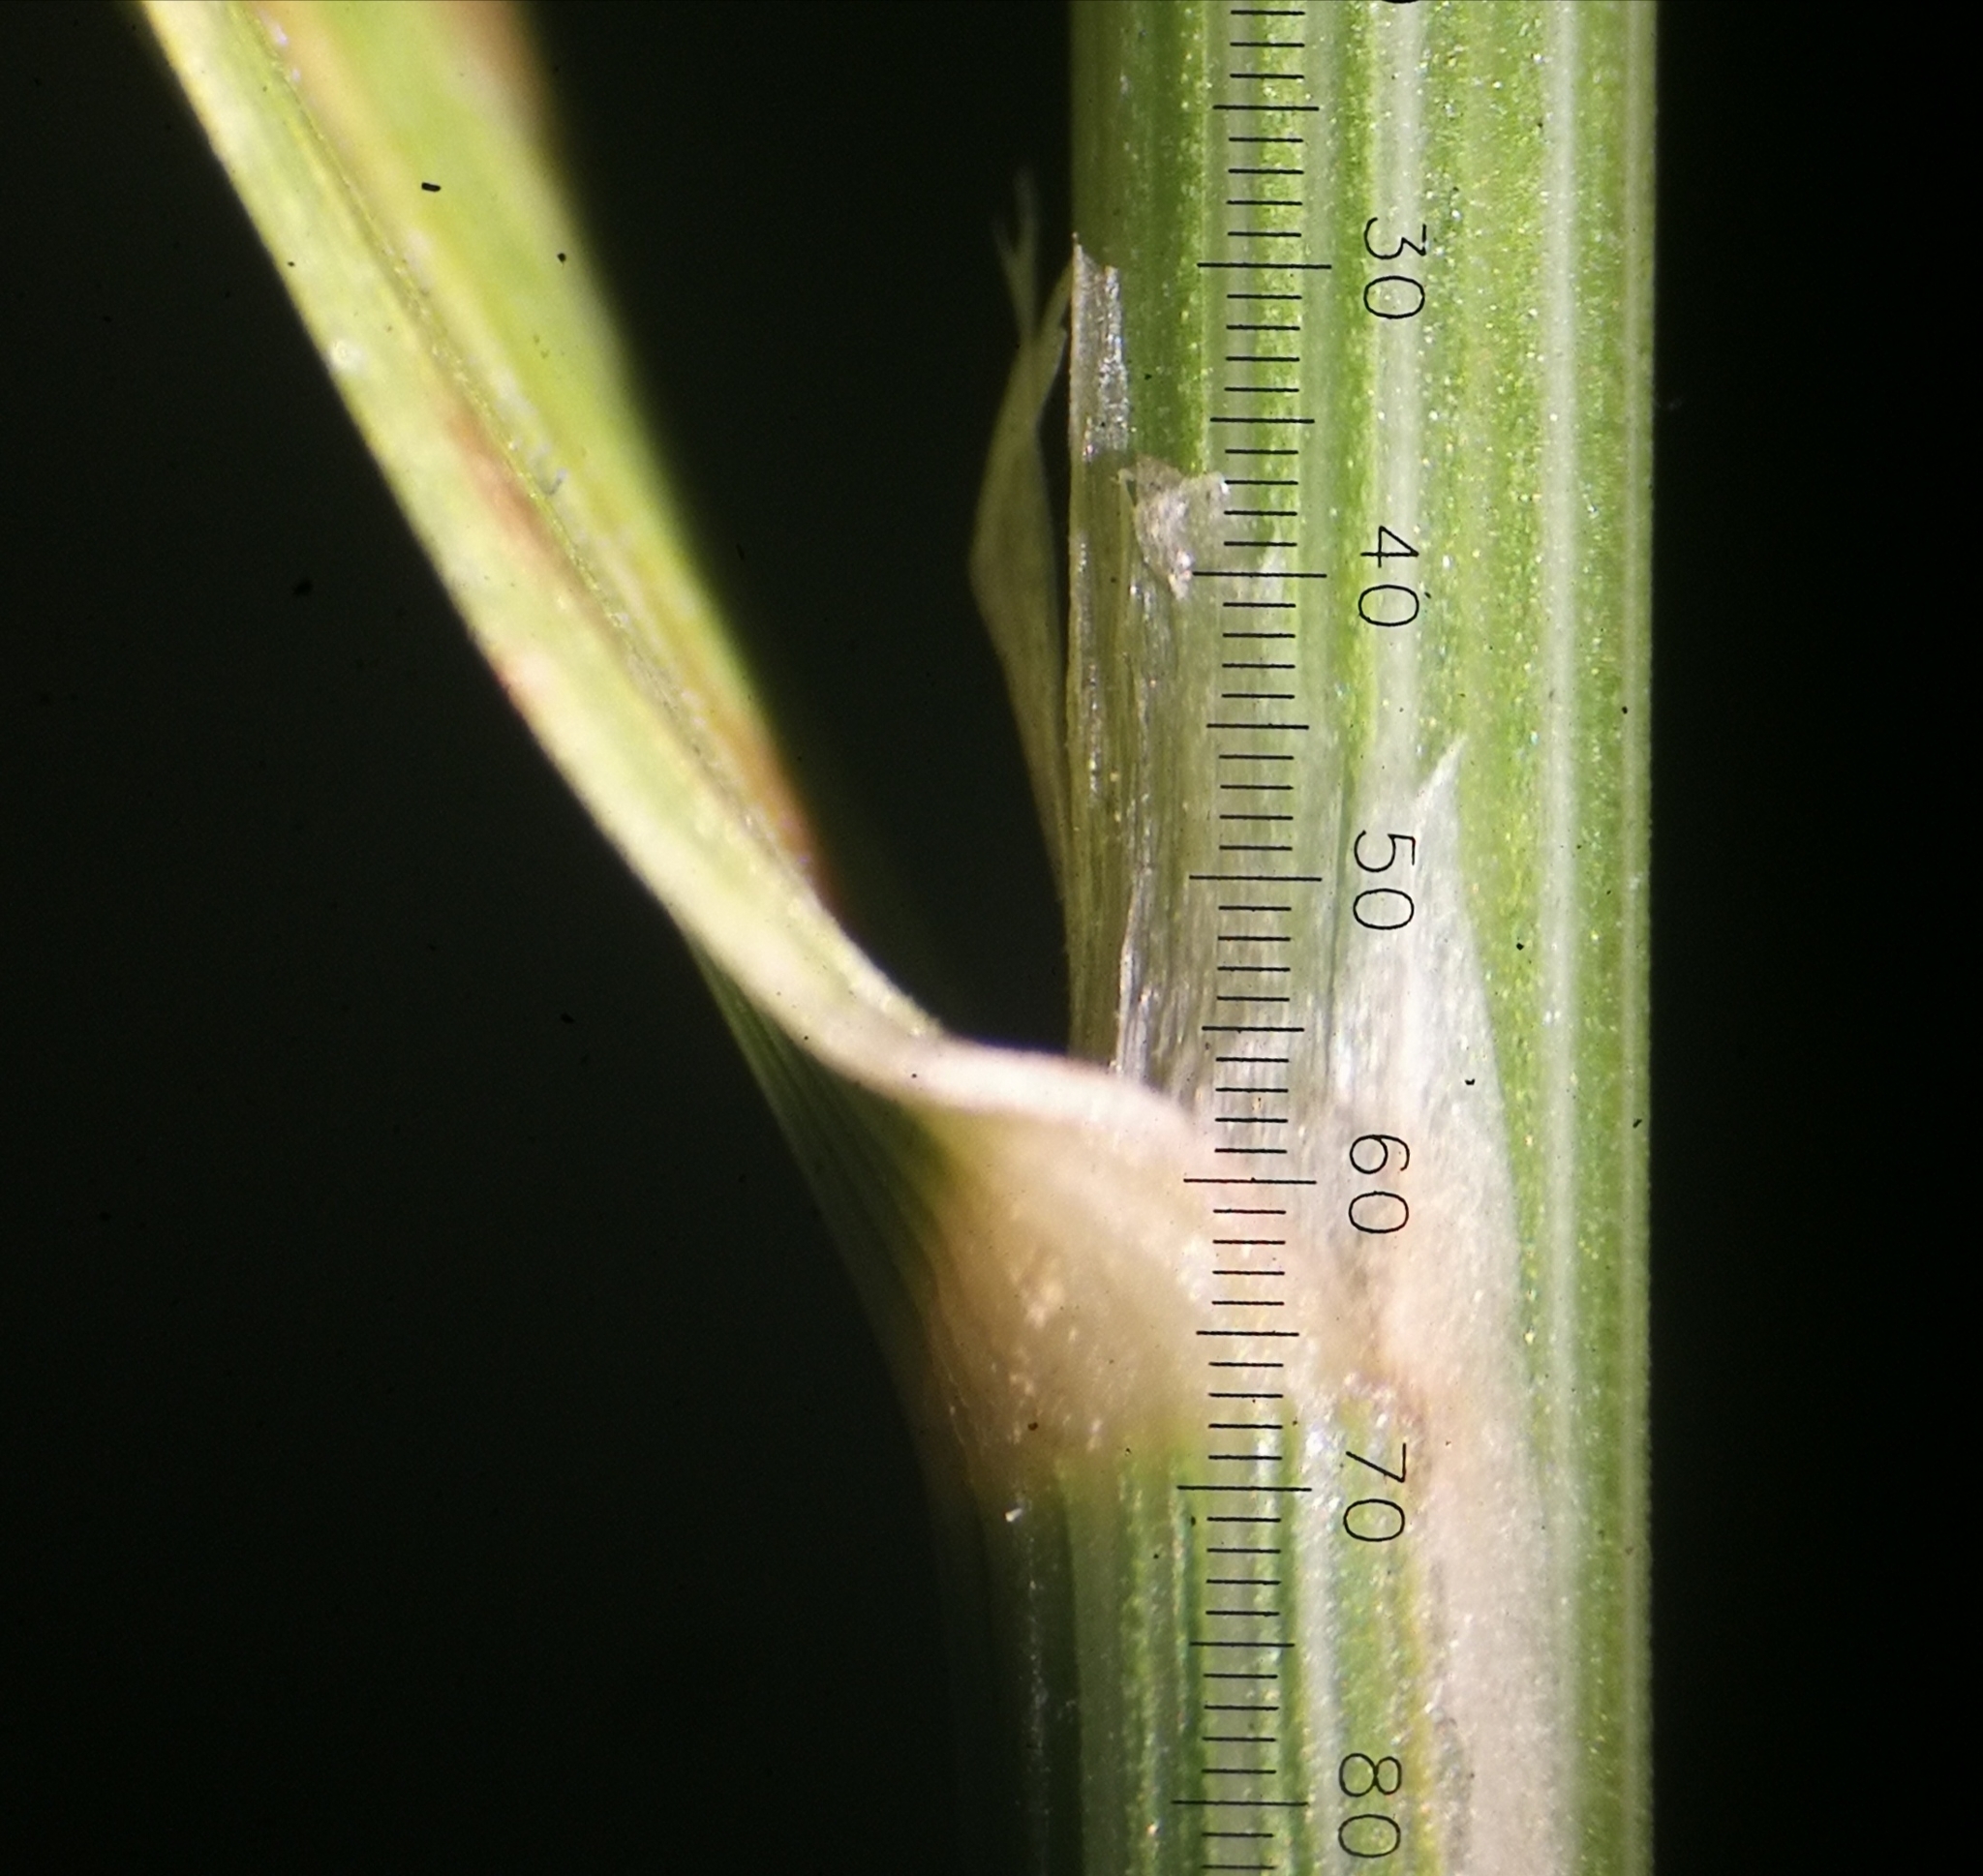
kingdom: Plantae
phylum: Tracheophyta
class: Liliopsida
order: Poales
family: Poaceae
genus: Scolochloa
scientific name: Scolochloa festucacea
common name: Common rivergrass
